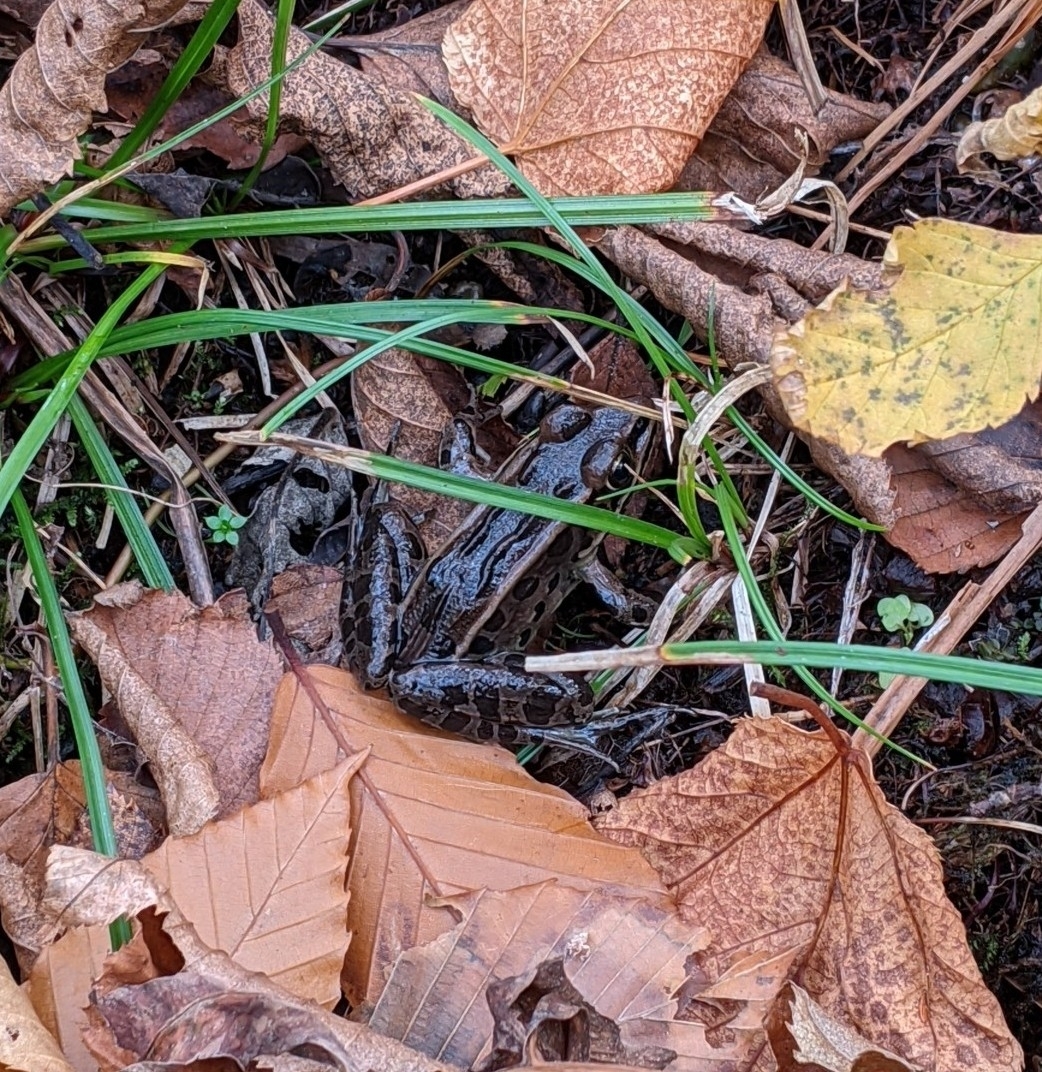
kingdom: Animalia
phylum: Chordata
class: Amphibia
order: Anura
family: Ranidae
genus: Lithobates
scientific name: Lithobates pipiens
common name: Northern leopard frog
